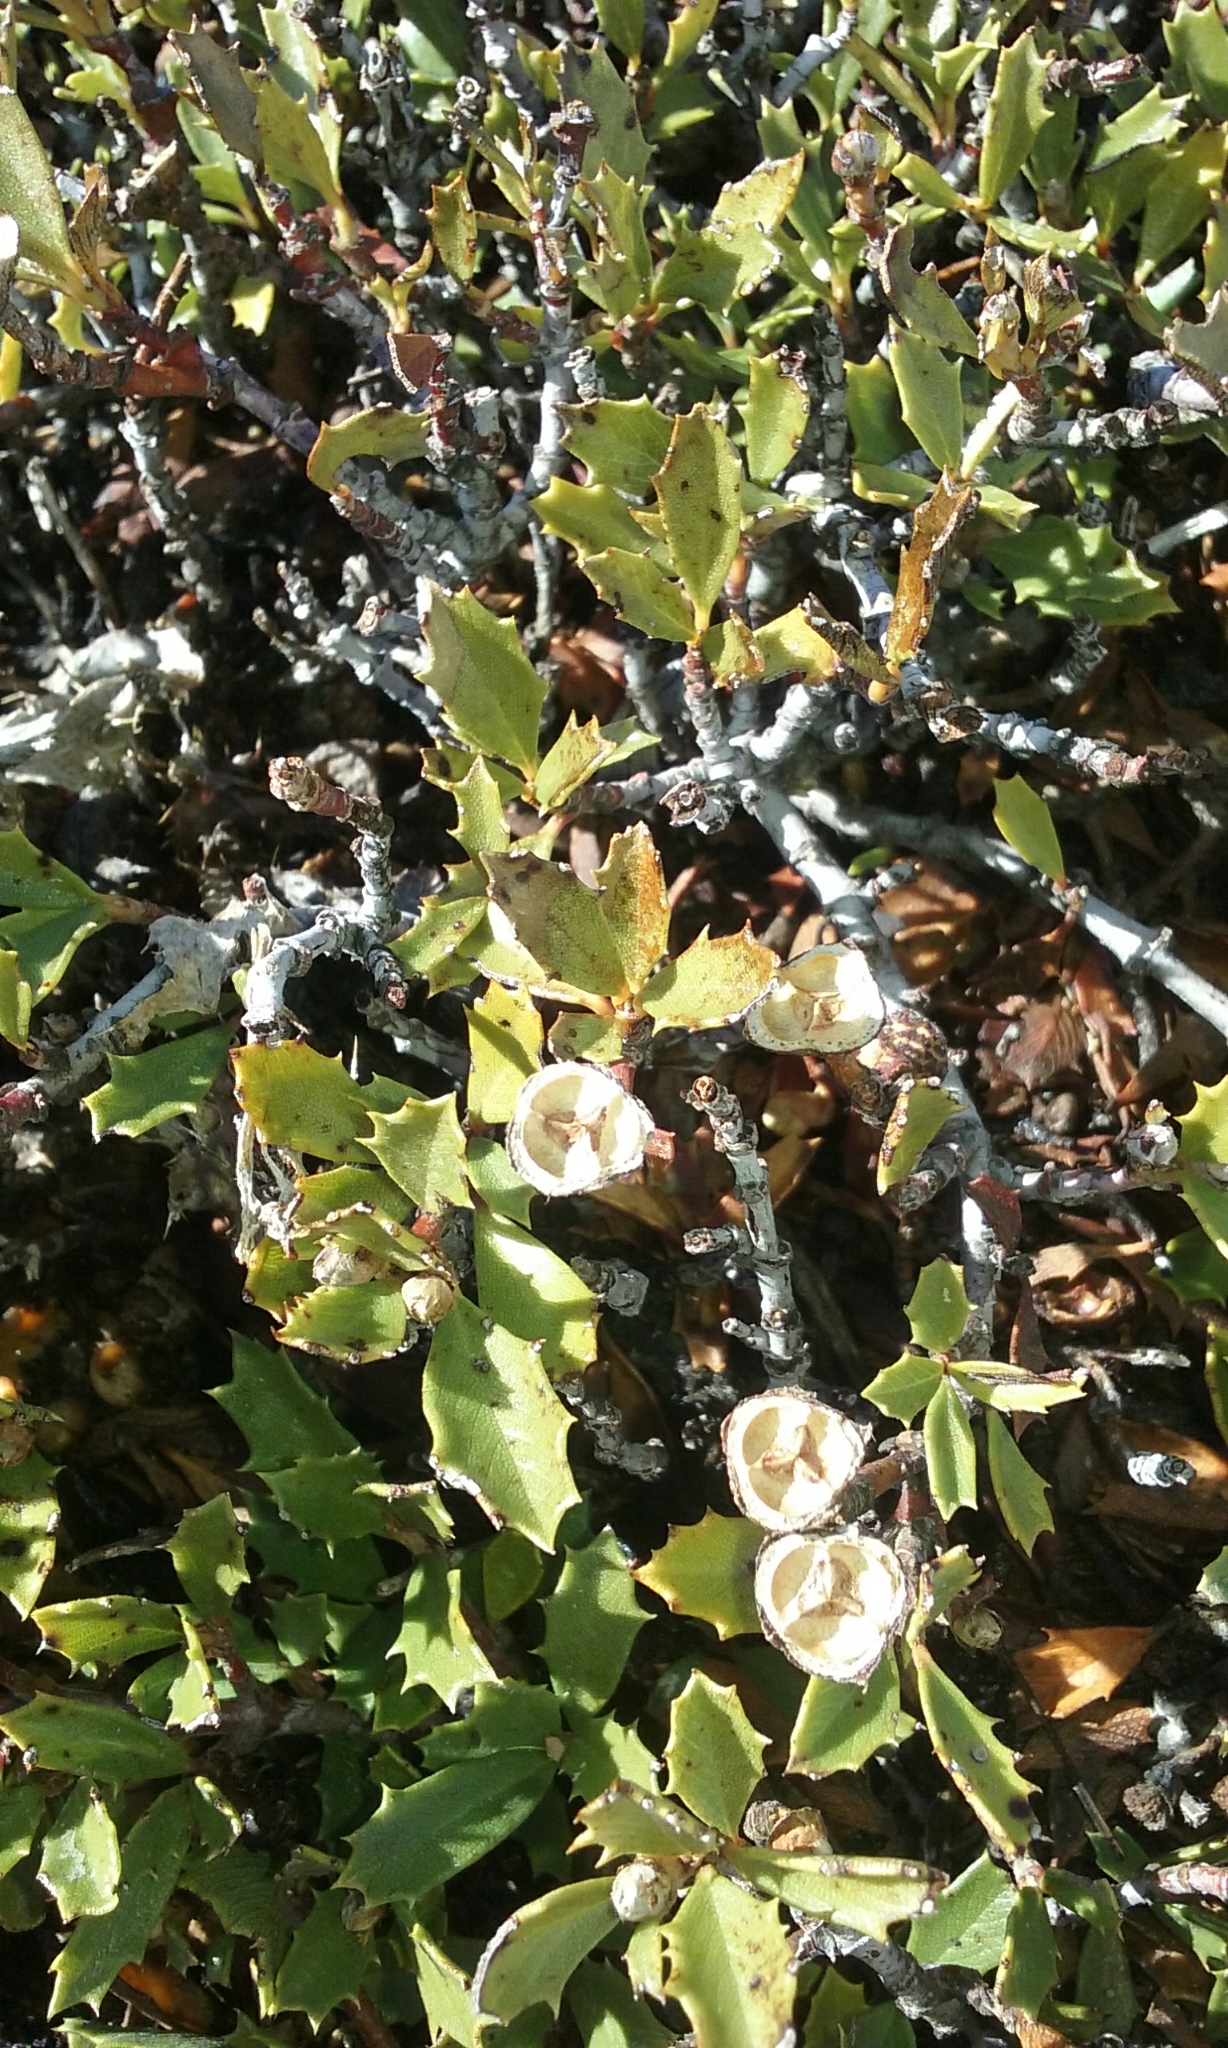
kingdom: Plantae
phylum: Tracheophyta
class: Magnoliopsida
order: Rosales
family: Rhamnaceae
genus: Ceanothus
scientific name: Ceanothus prostratus
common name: Mahala-mat
